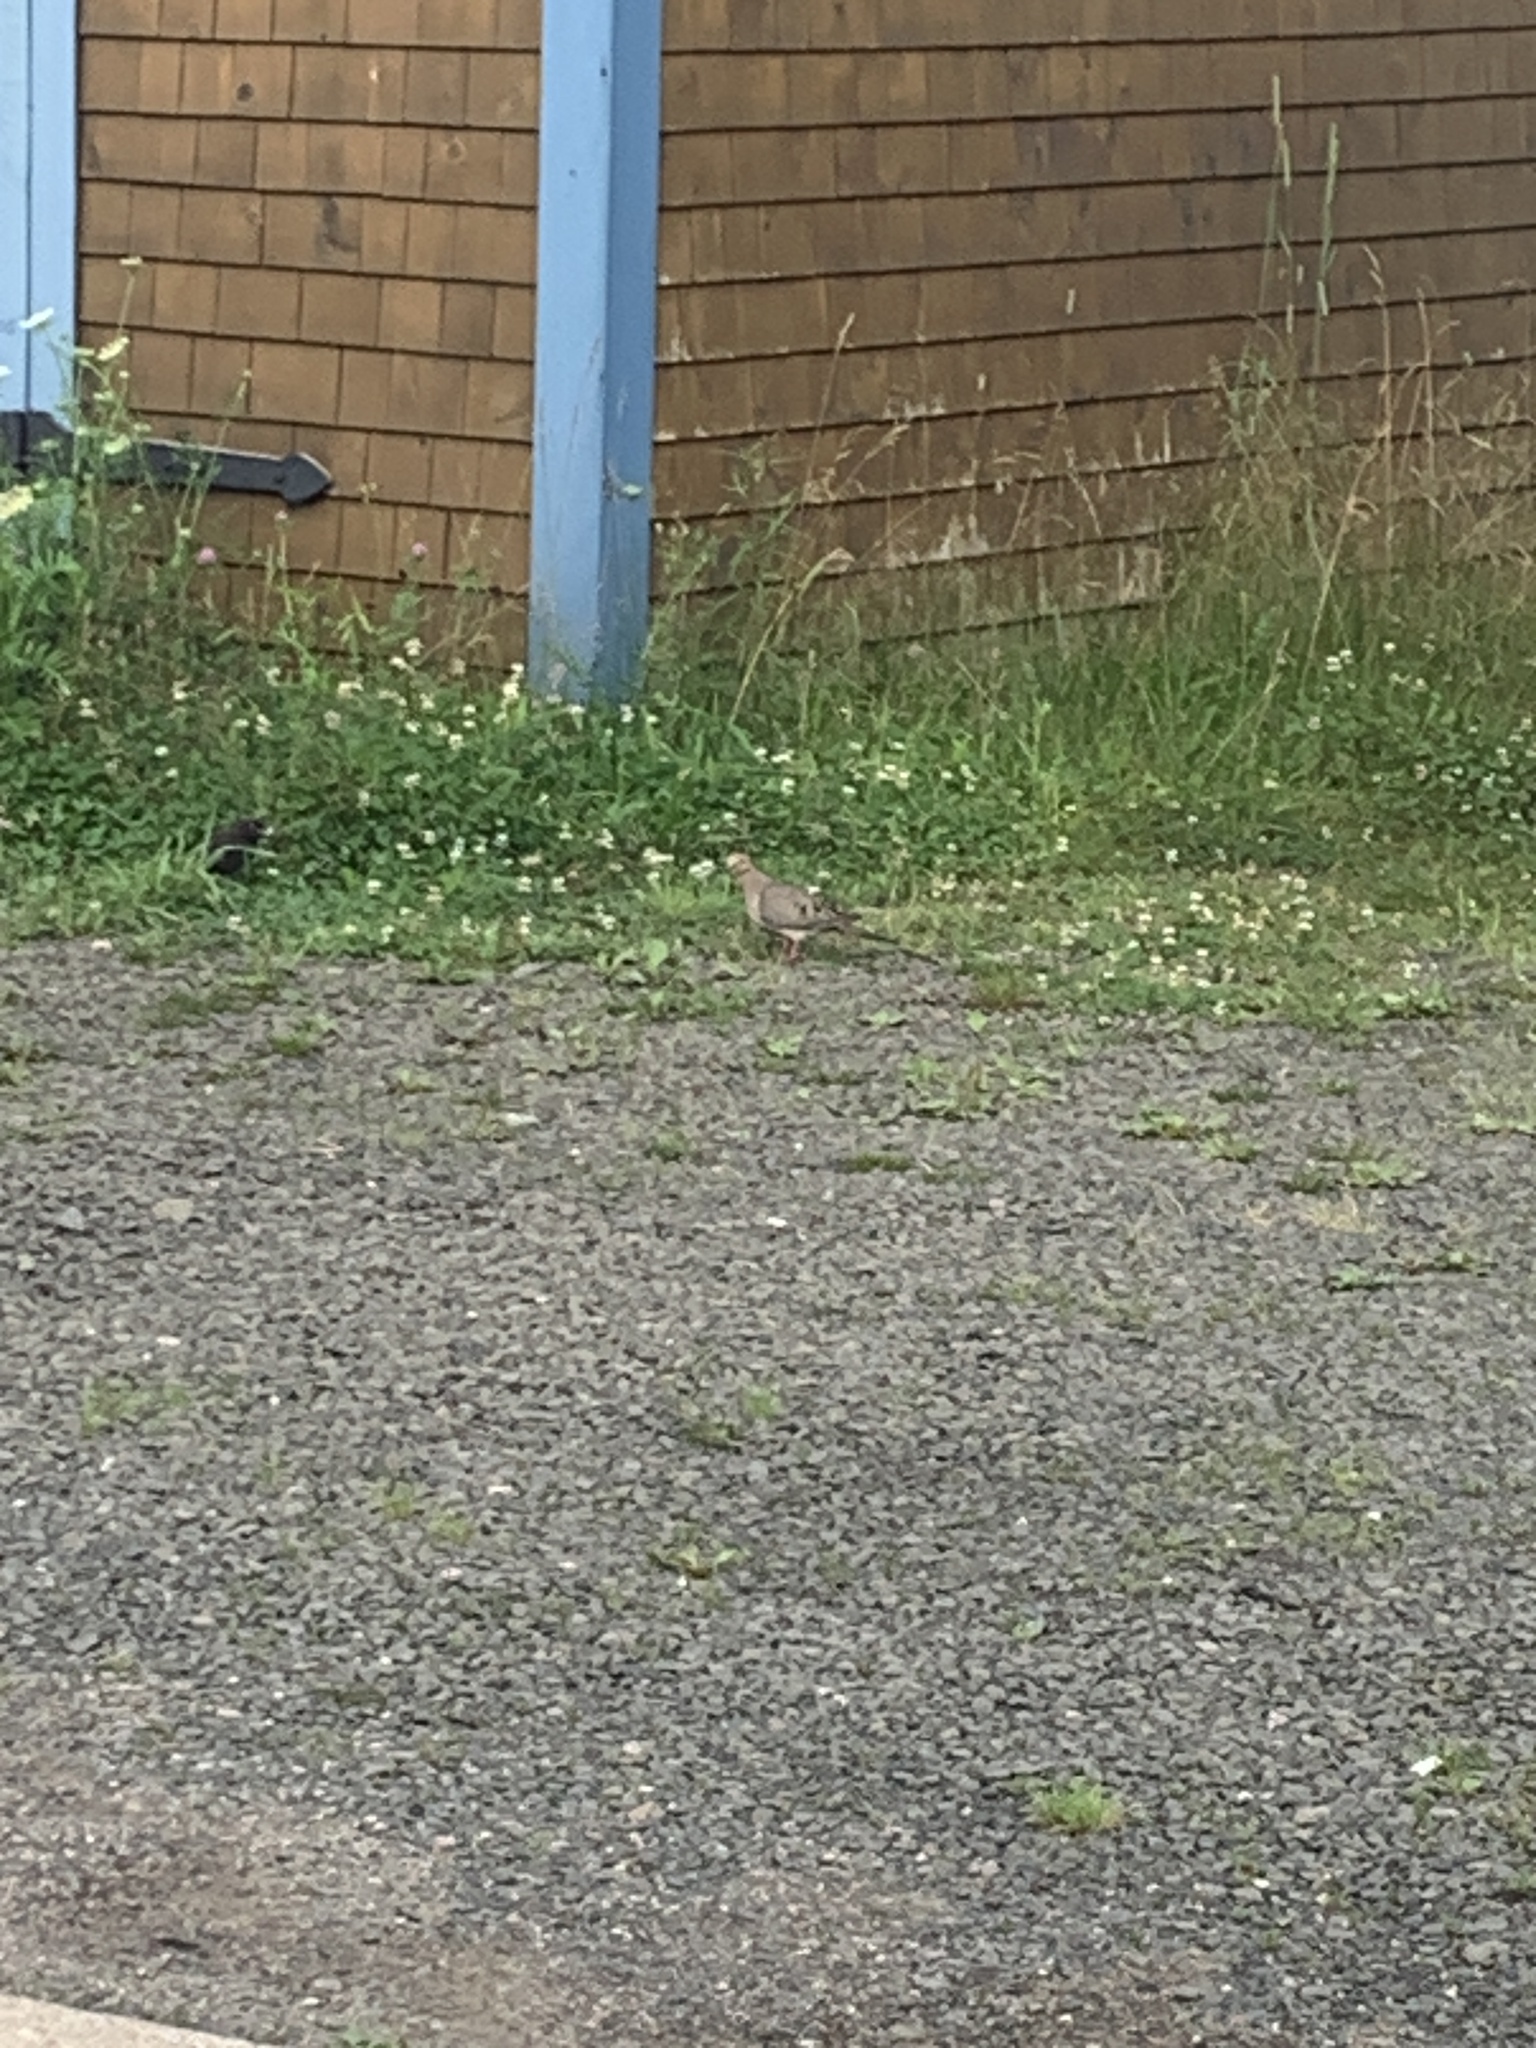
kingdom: Animalia
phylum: Chordata
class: Aves
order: Columbiformes
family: Columbidae
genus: Zenaida
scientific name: Zenaida macroura
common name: Mourning dove
